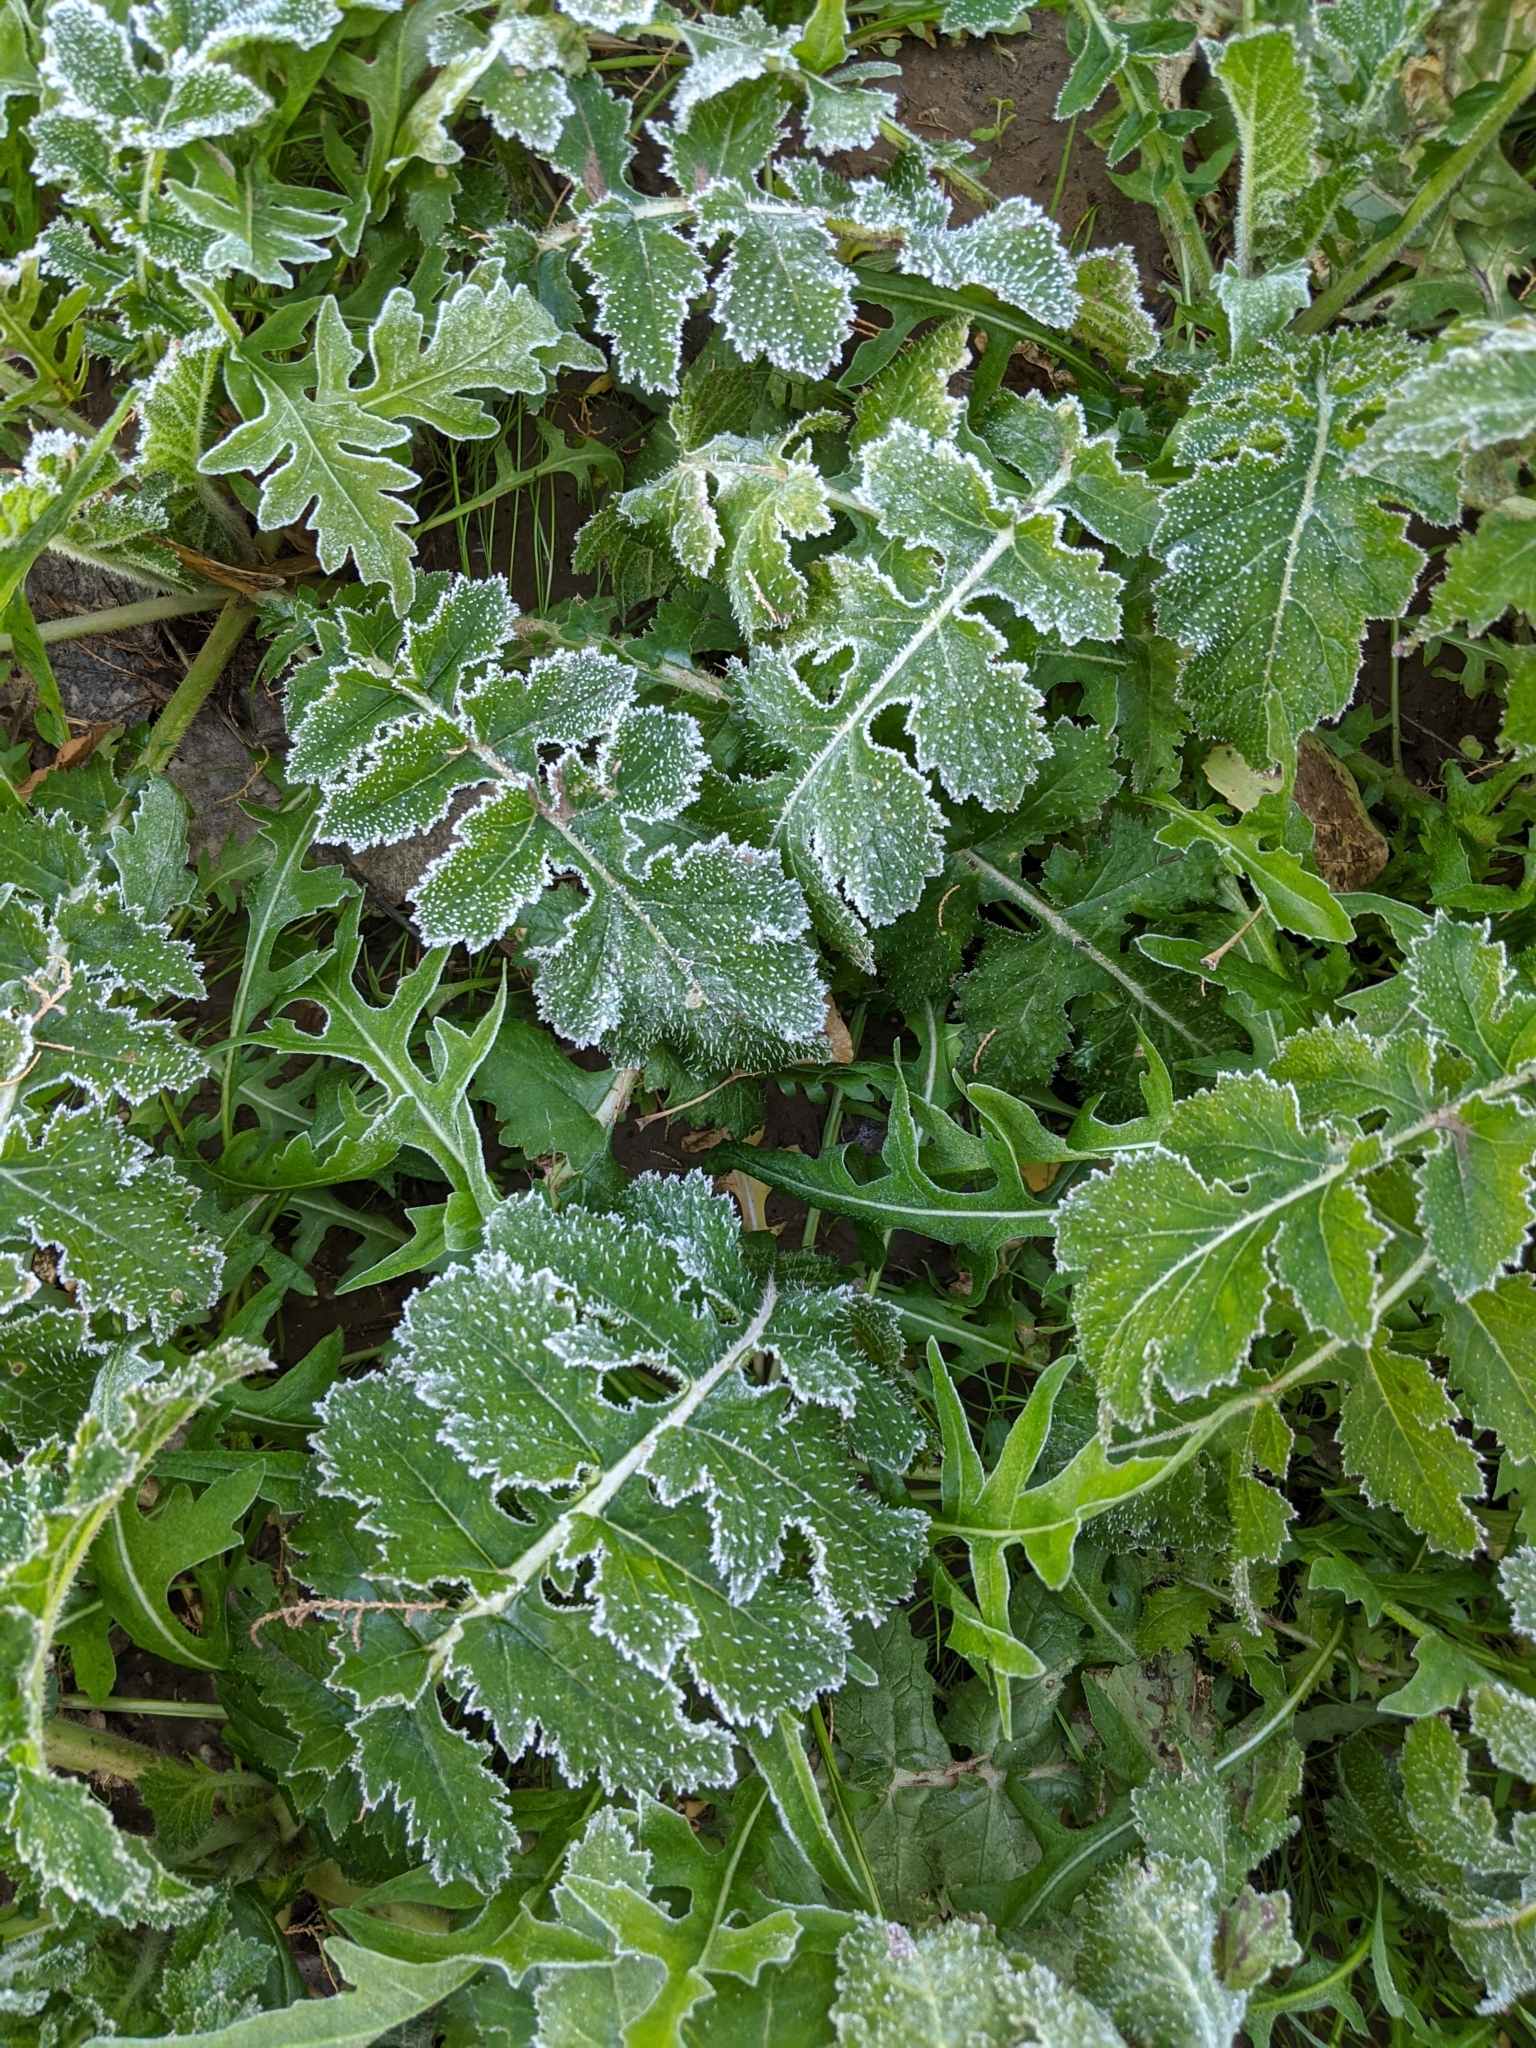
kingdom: Plantae
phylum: Tracheophyta
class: Magnoliopsida
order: Brassicales
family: Brassicaceae
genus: Brassica
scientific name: Brassica tournefortii
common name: Pale cabbage
